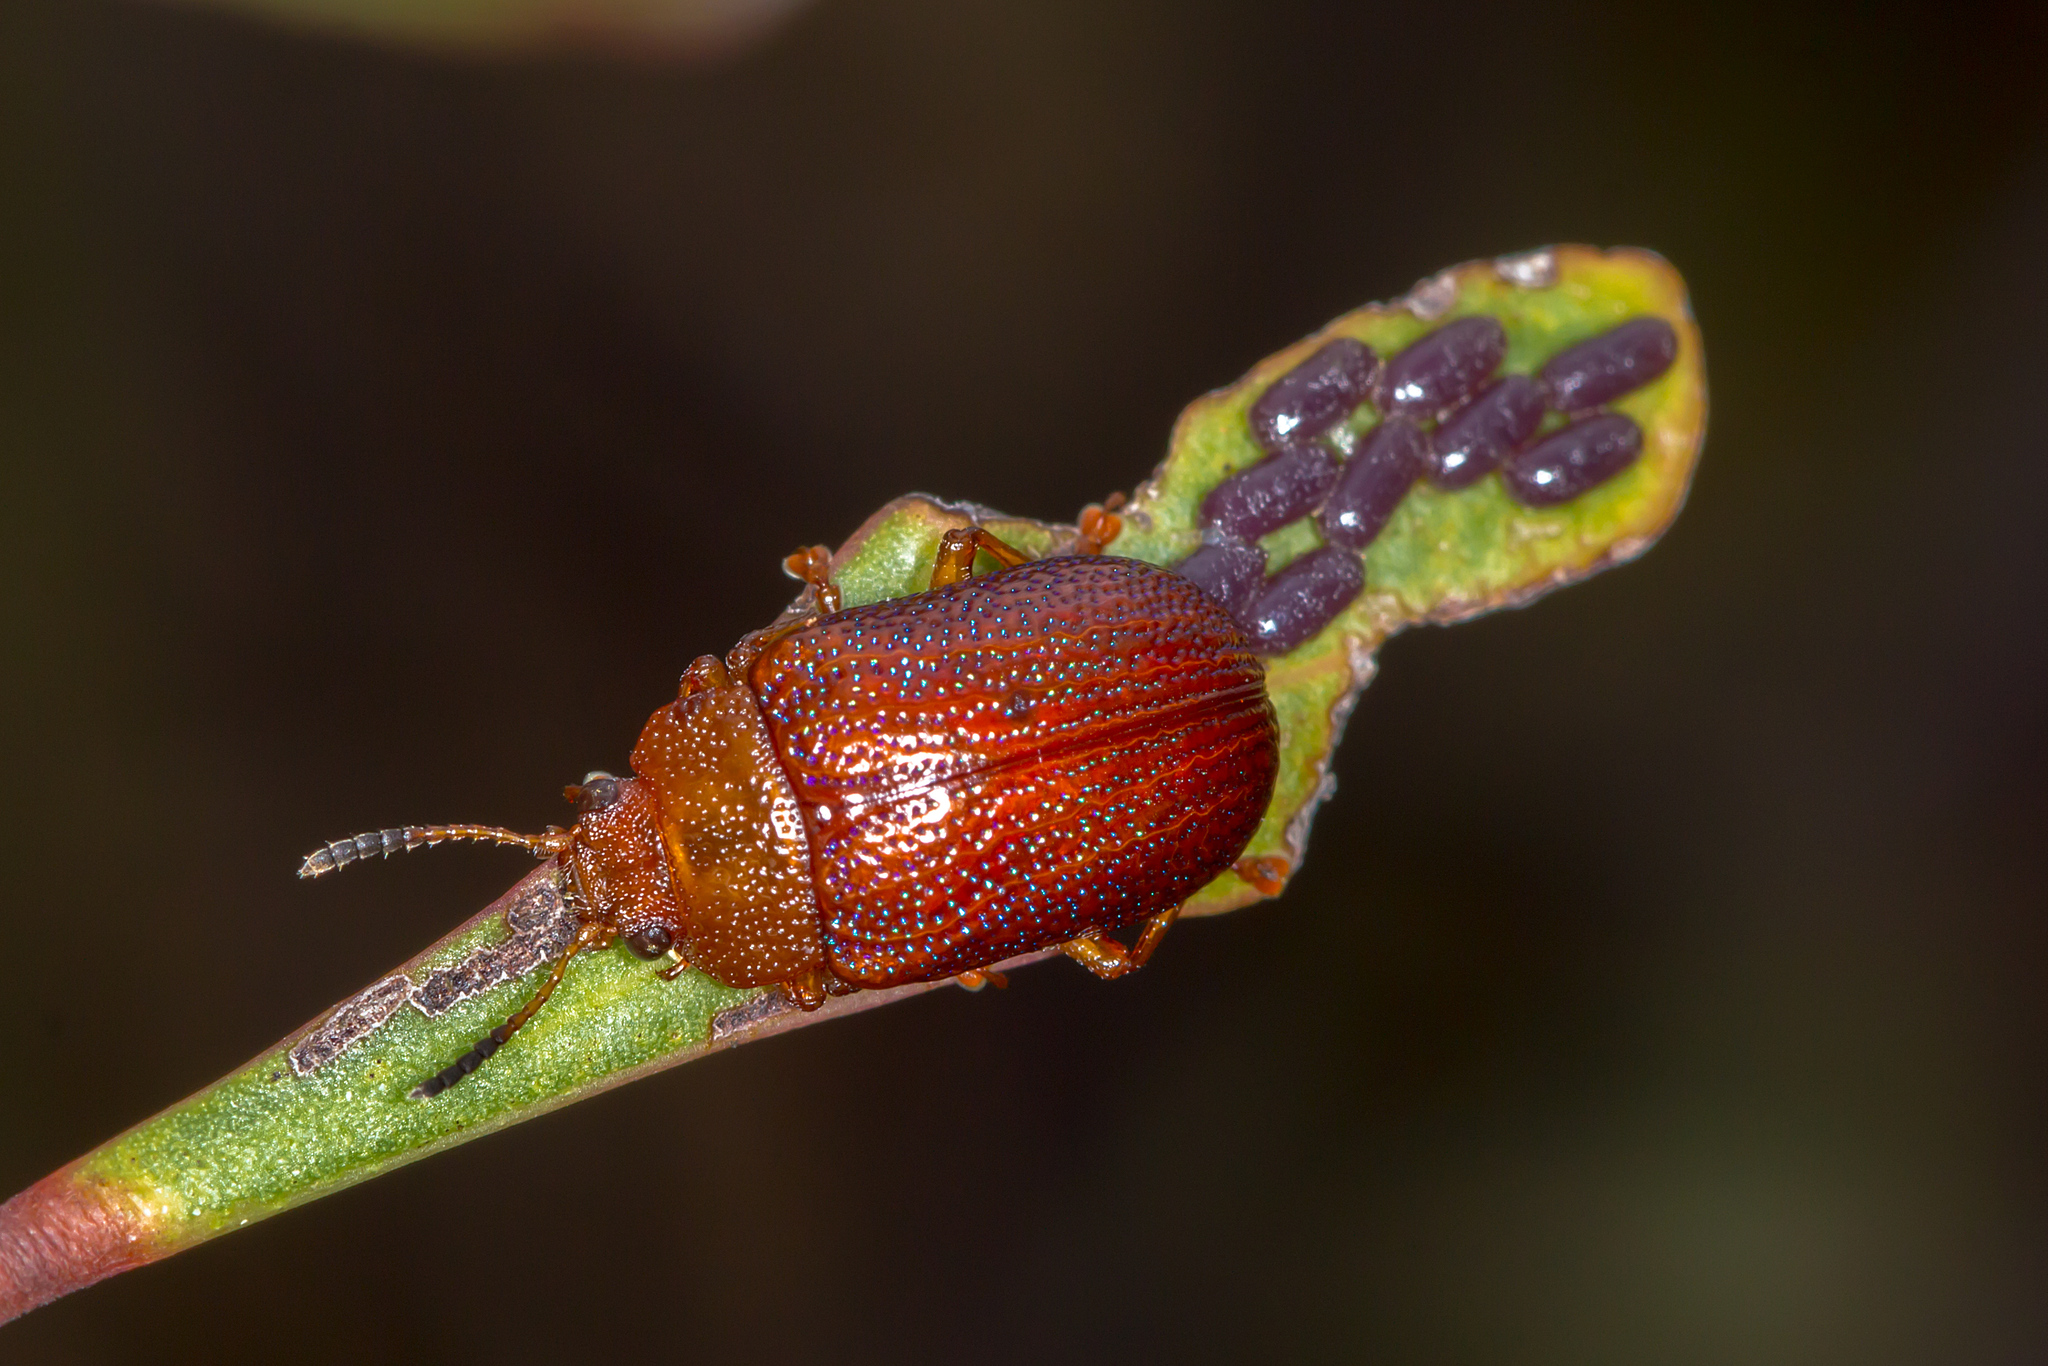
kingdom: Animalia
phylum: Arthropoda
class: Insecta
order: Coleoptera
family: Chrysomelidae
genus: Calomela
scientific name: Calomela
